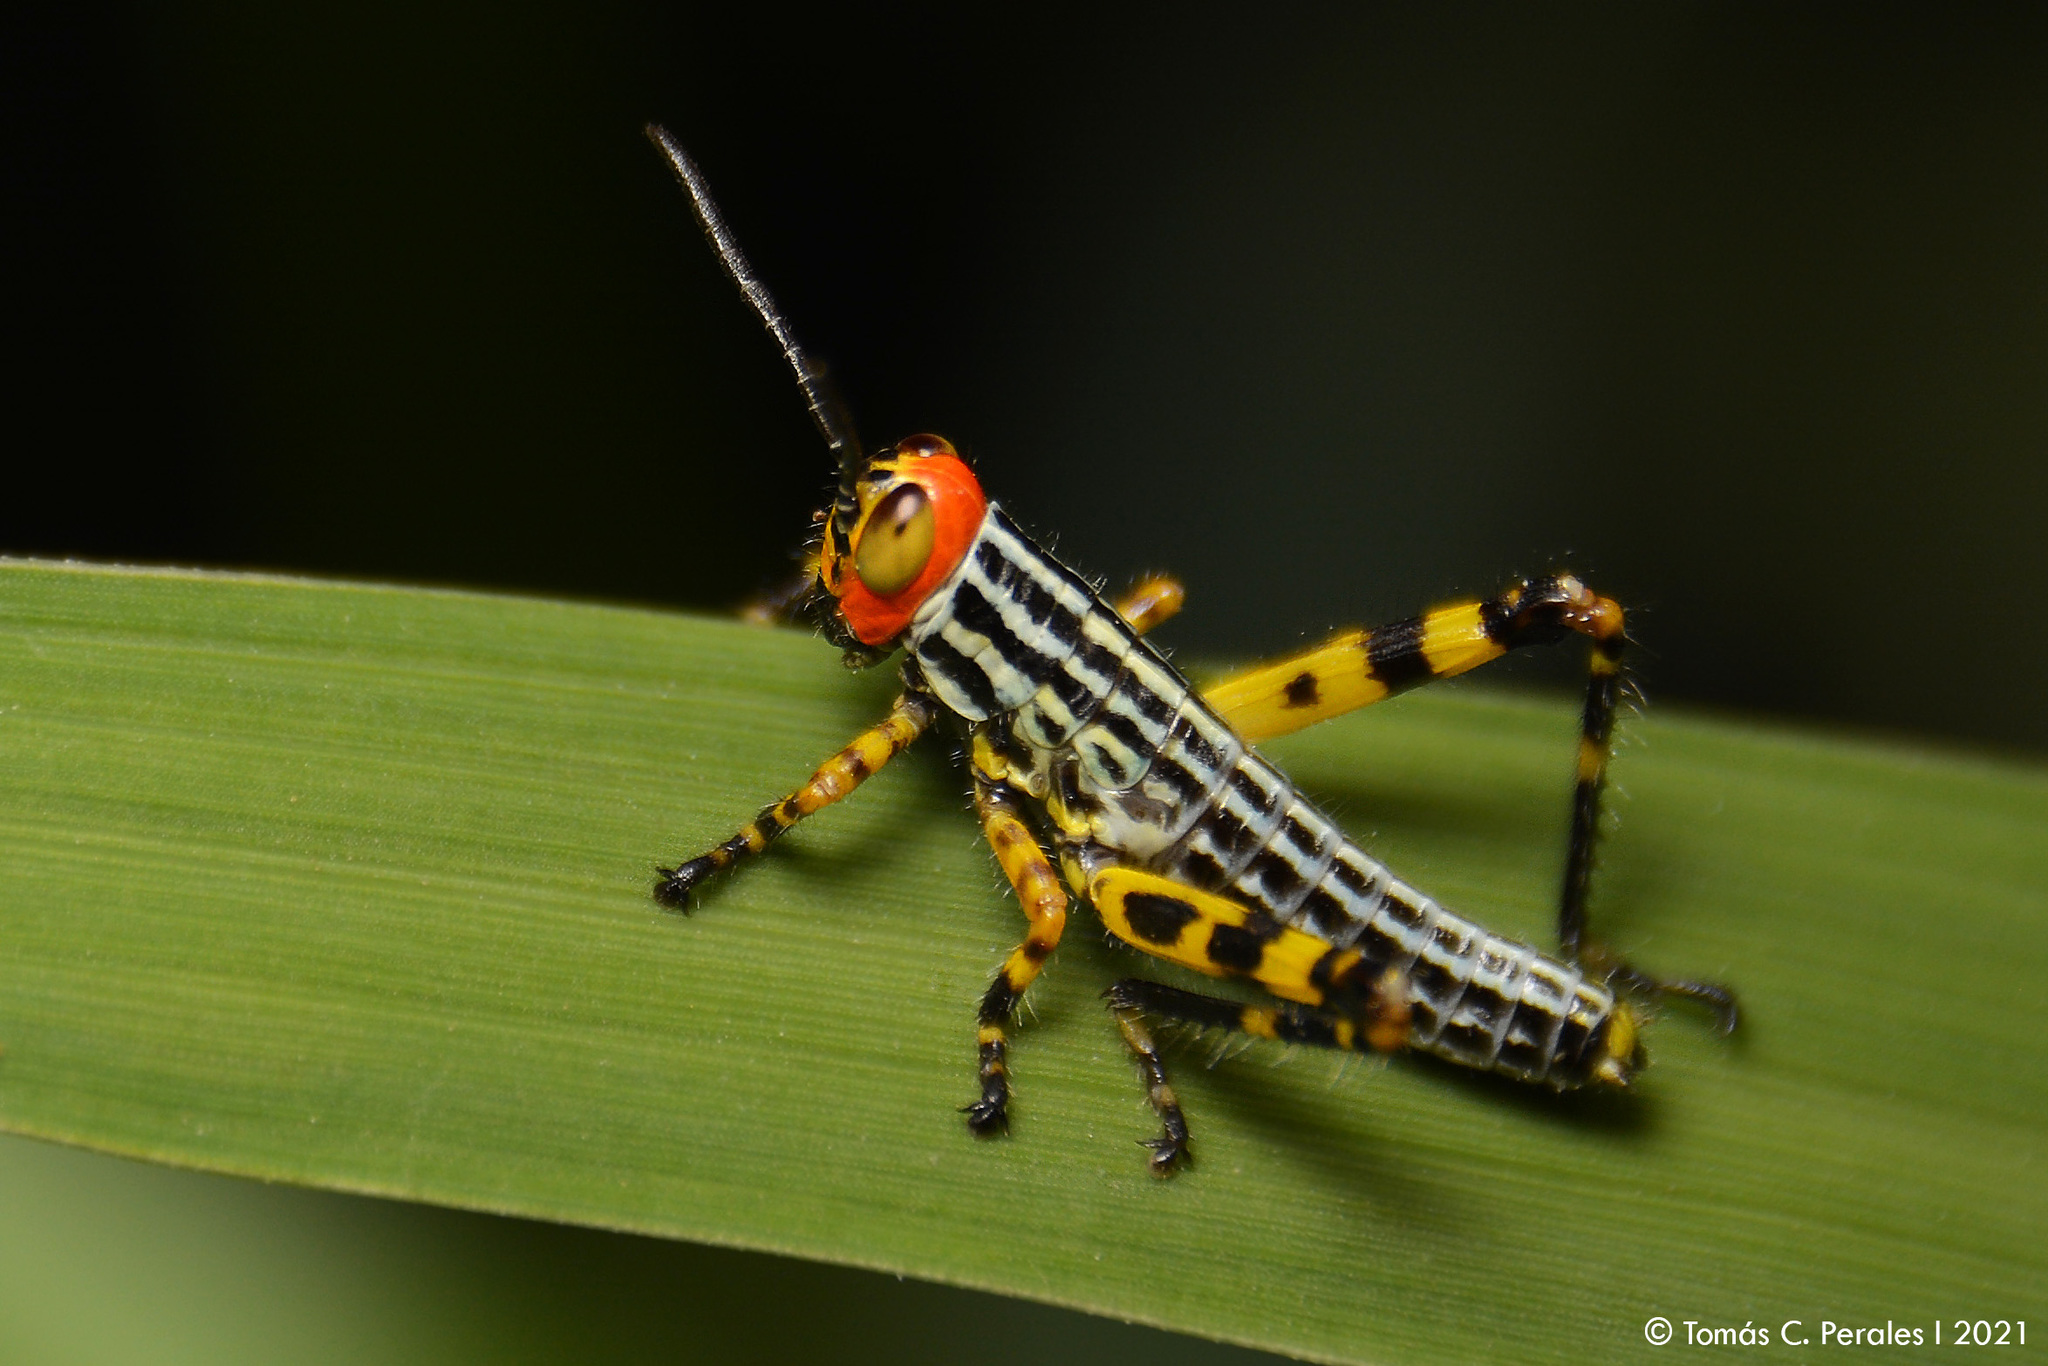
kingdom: Animalia
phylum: Arthropoda
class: Insecta
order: Orthoptera
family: Romaleidae
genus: Zoniopoda
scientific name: Zoniopoda tarsata
